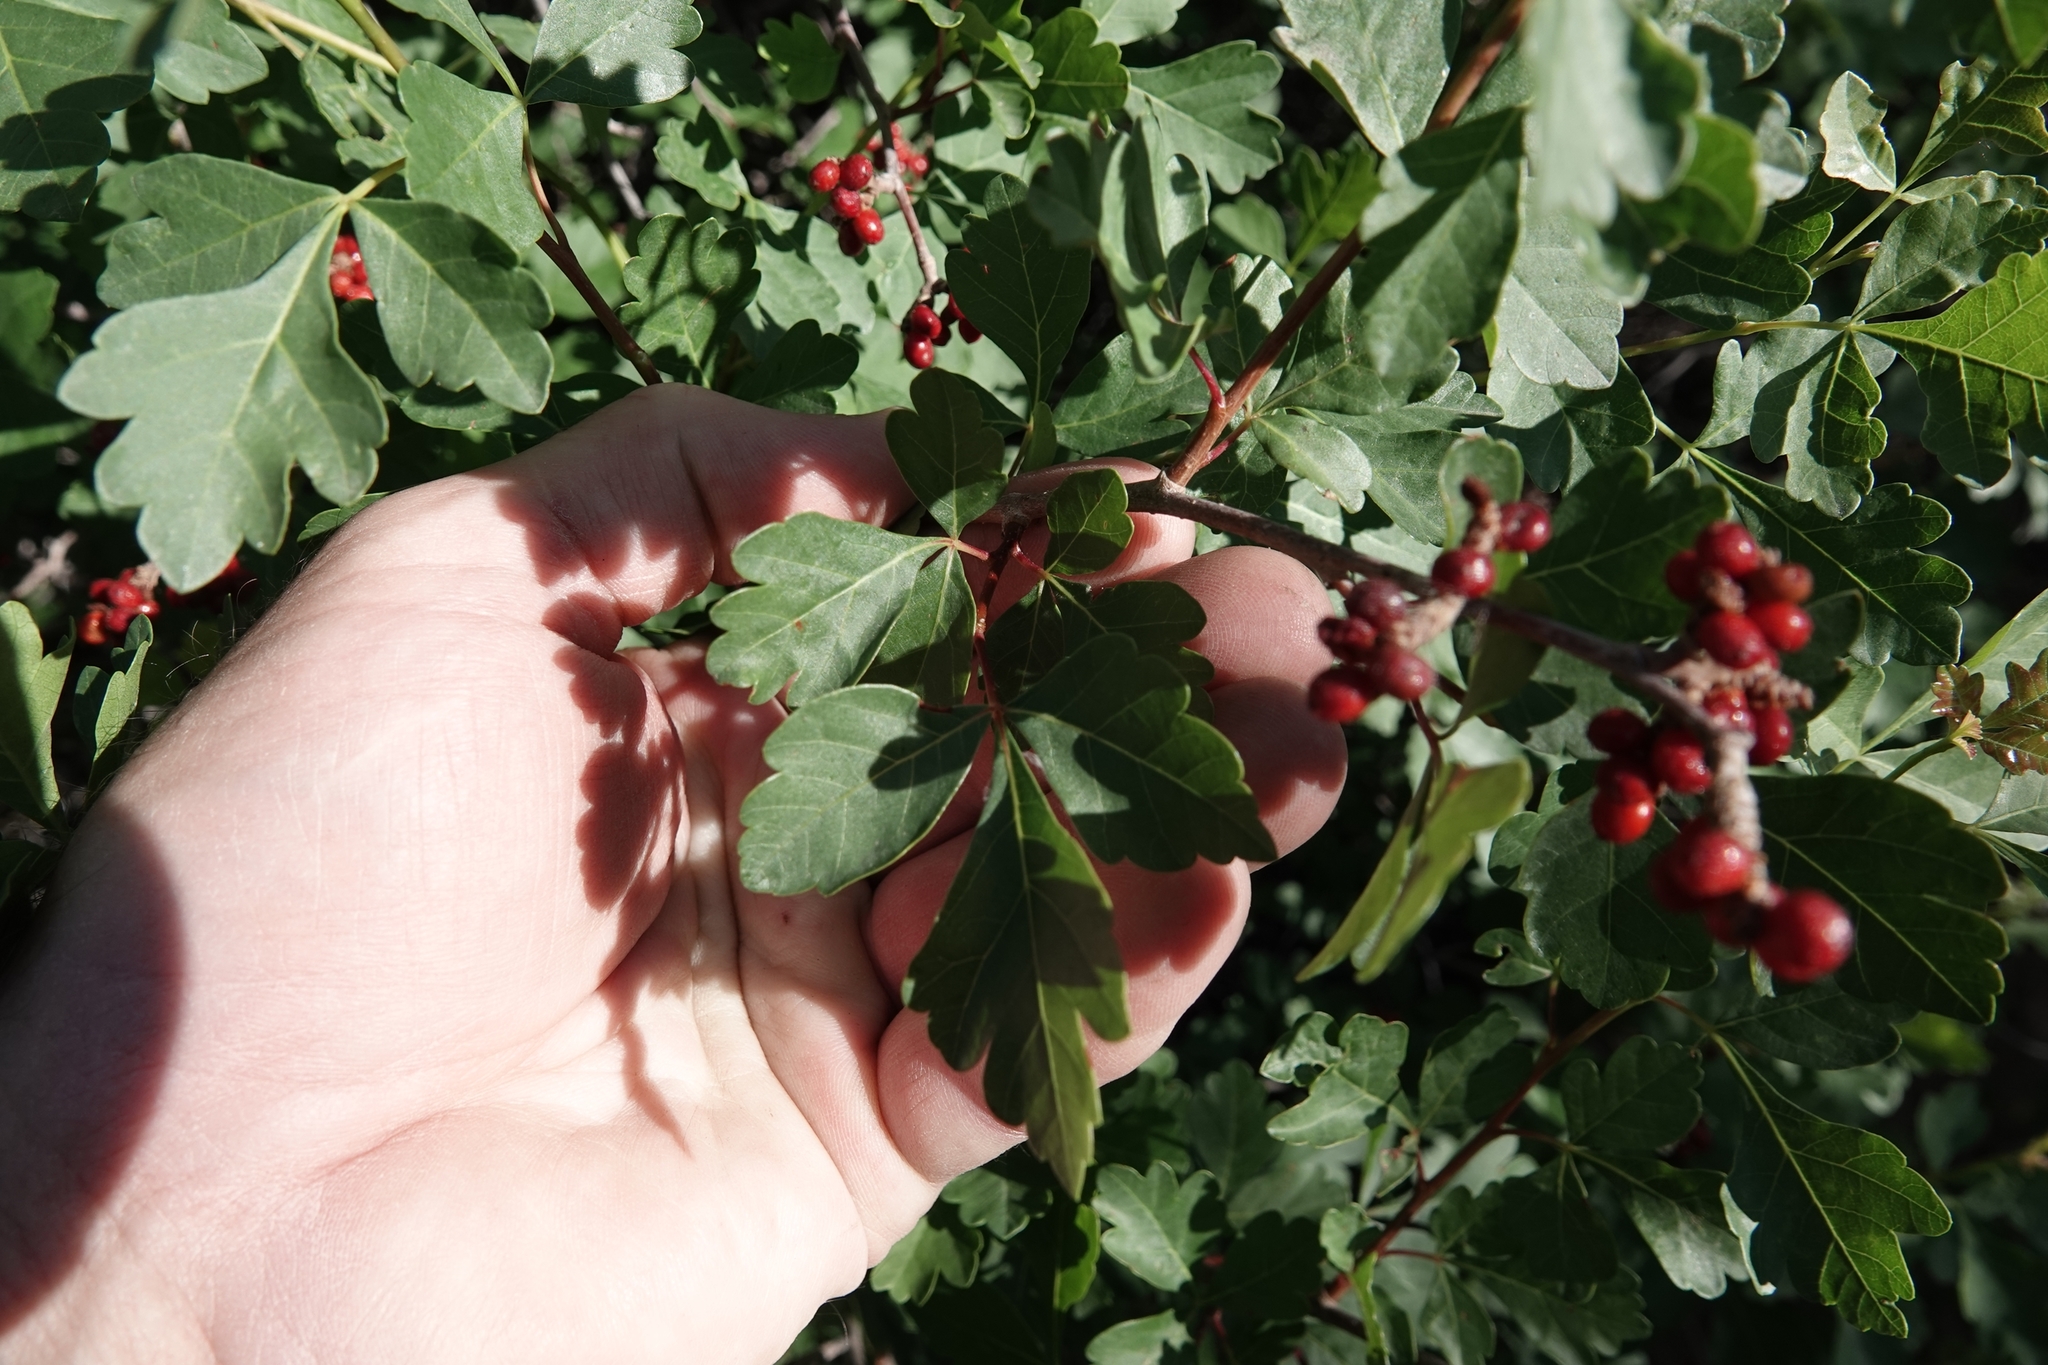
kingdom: Plantae
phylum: Tracheophyta
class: Magnoliopsida
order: Sapindales
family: Anacardiaceae
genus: Rhus
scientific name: Rhus aromatica
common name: Aromatic sumac
